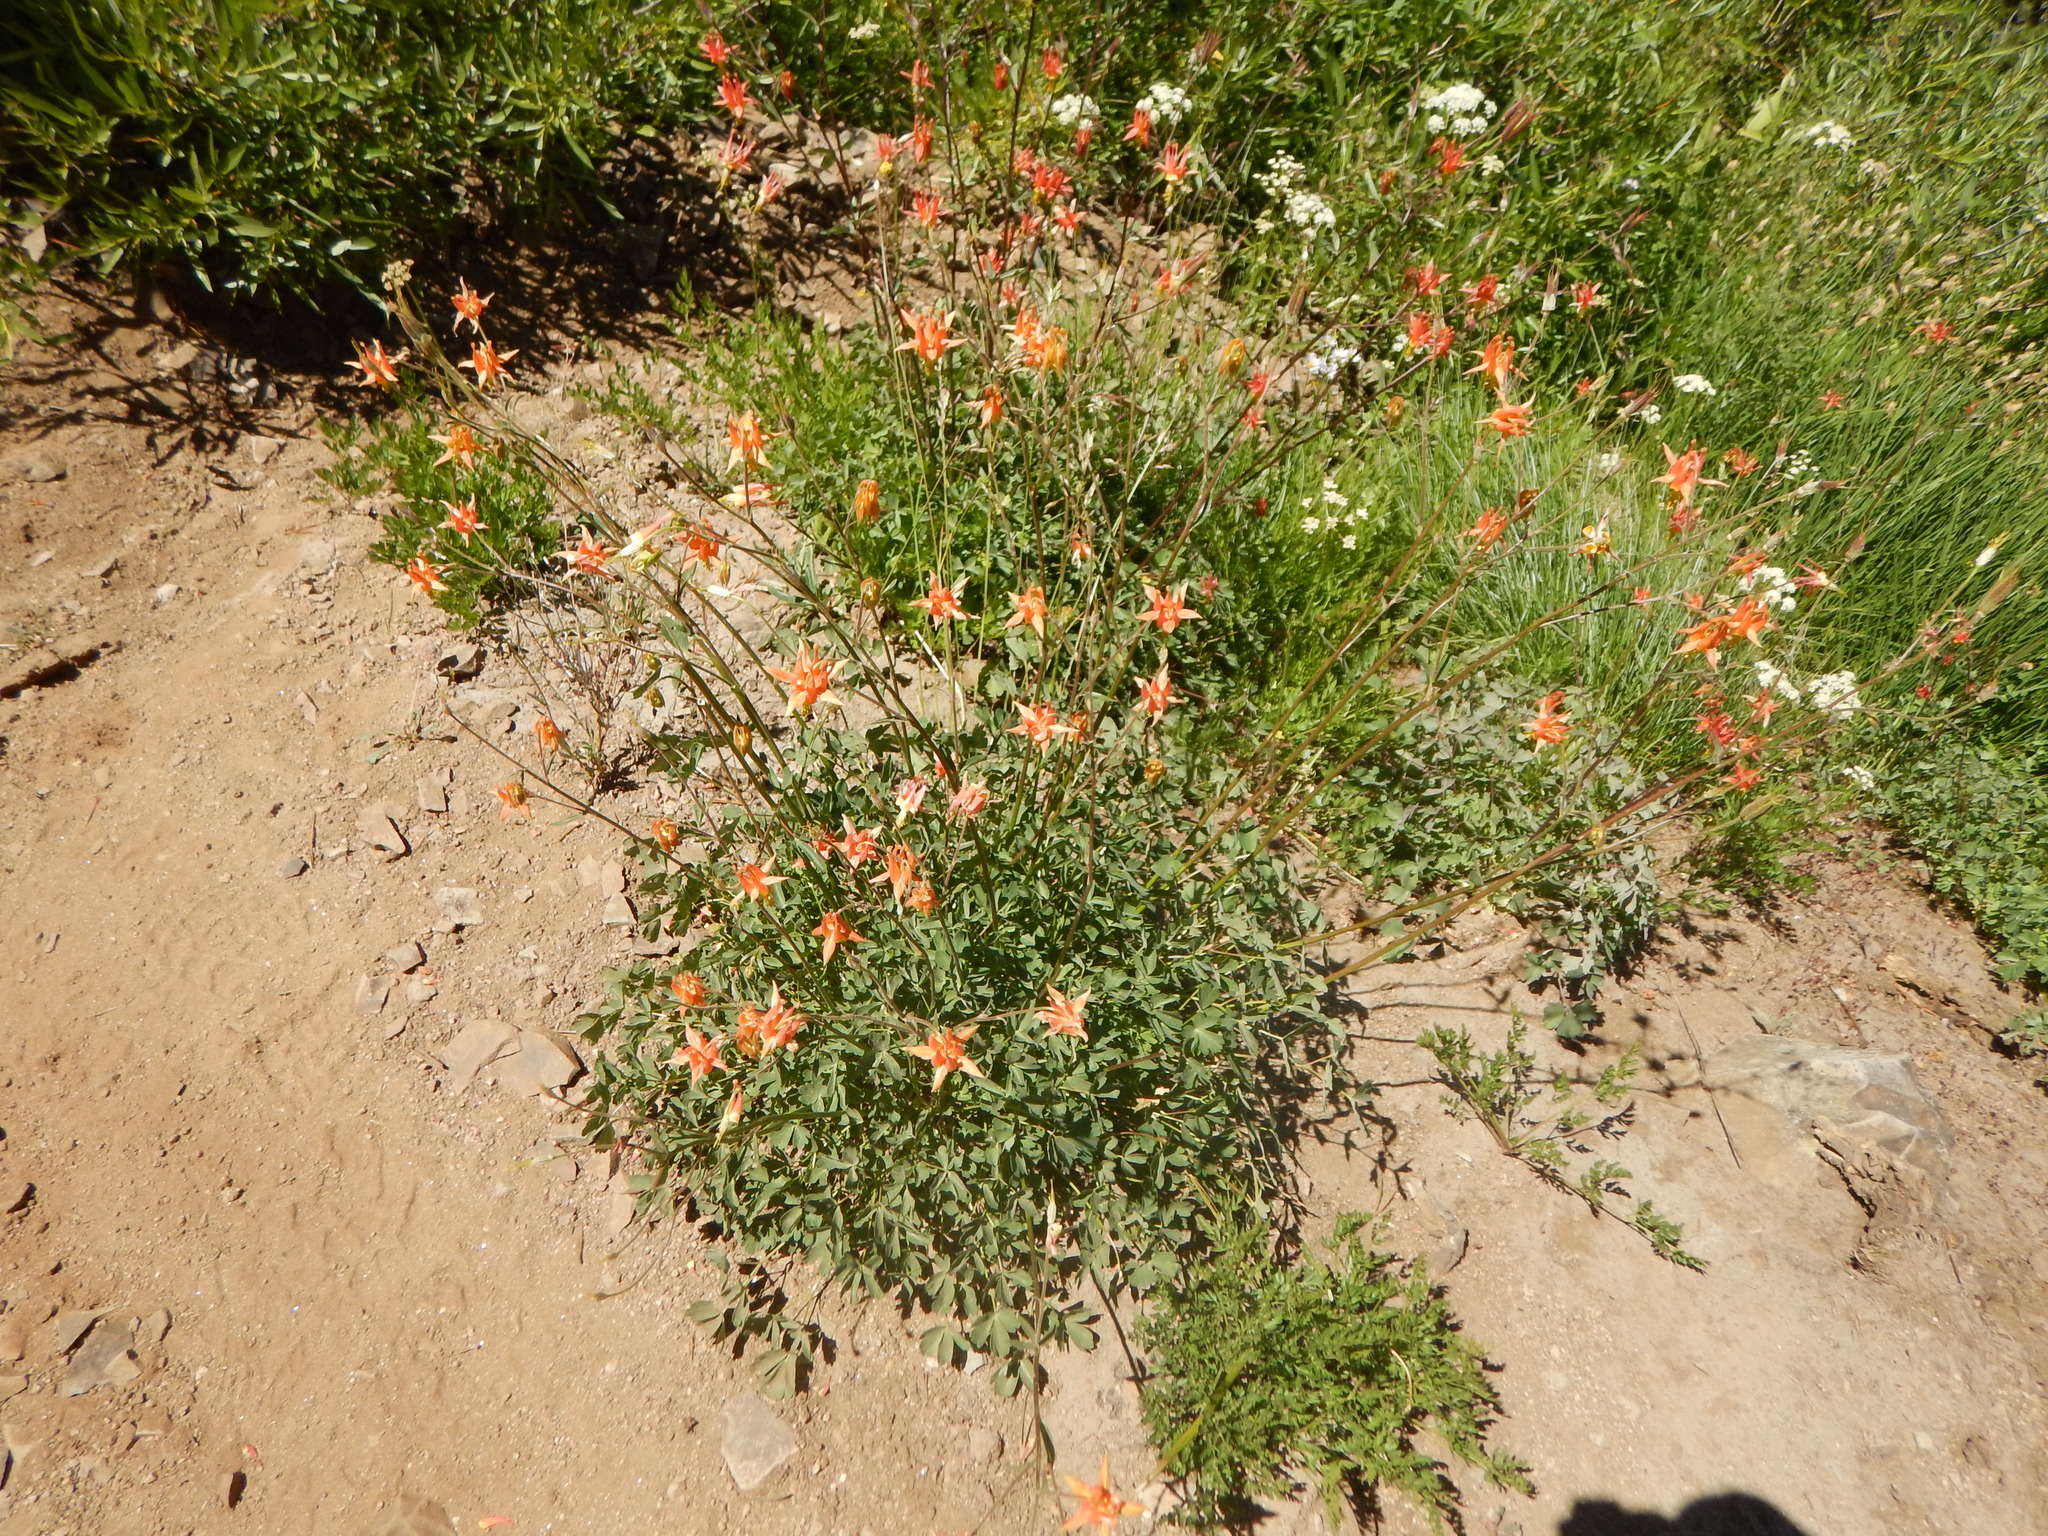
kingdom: Plantae
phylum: Tracheophyta
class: Magnoliopsida
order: Ranunculales
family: Ranunculaceae
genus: Aquilegia
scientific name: Aquilegia formosa
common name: Sitka columbine
